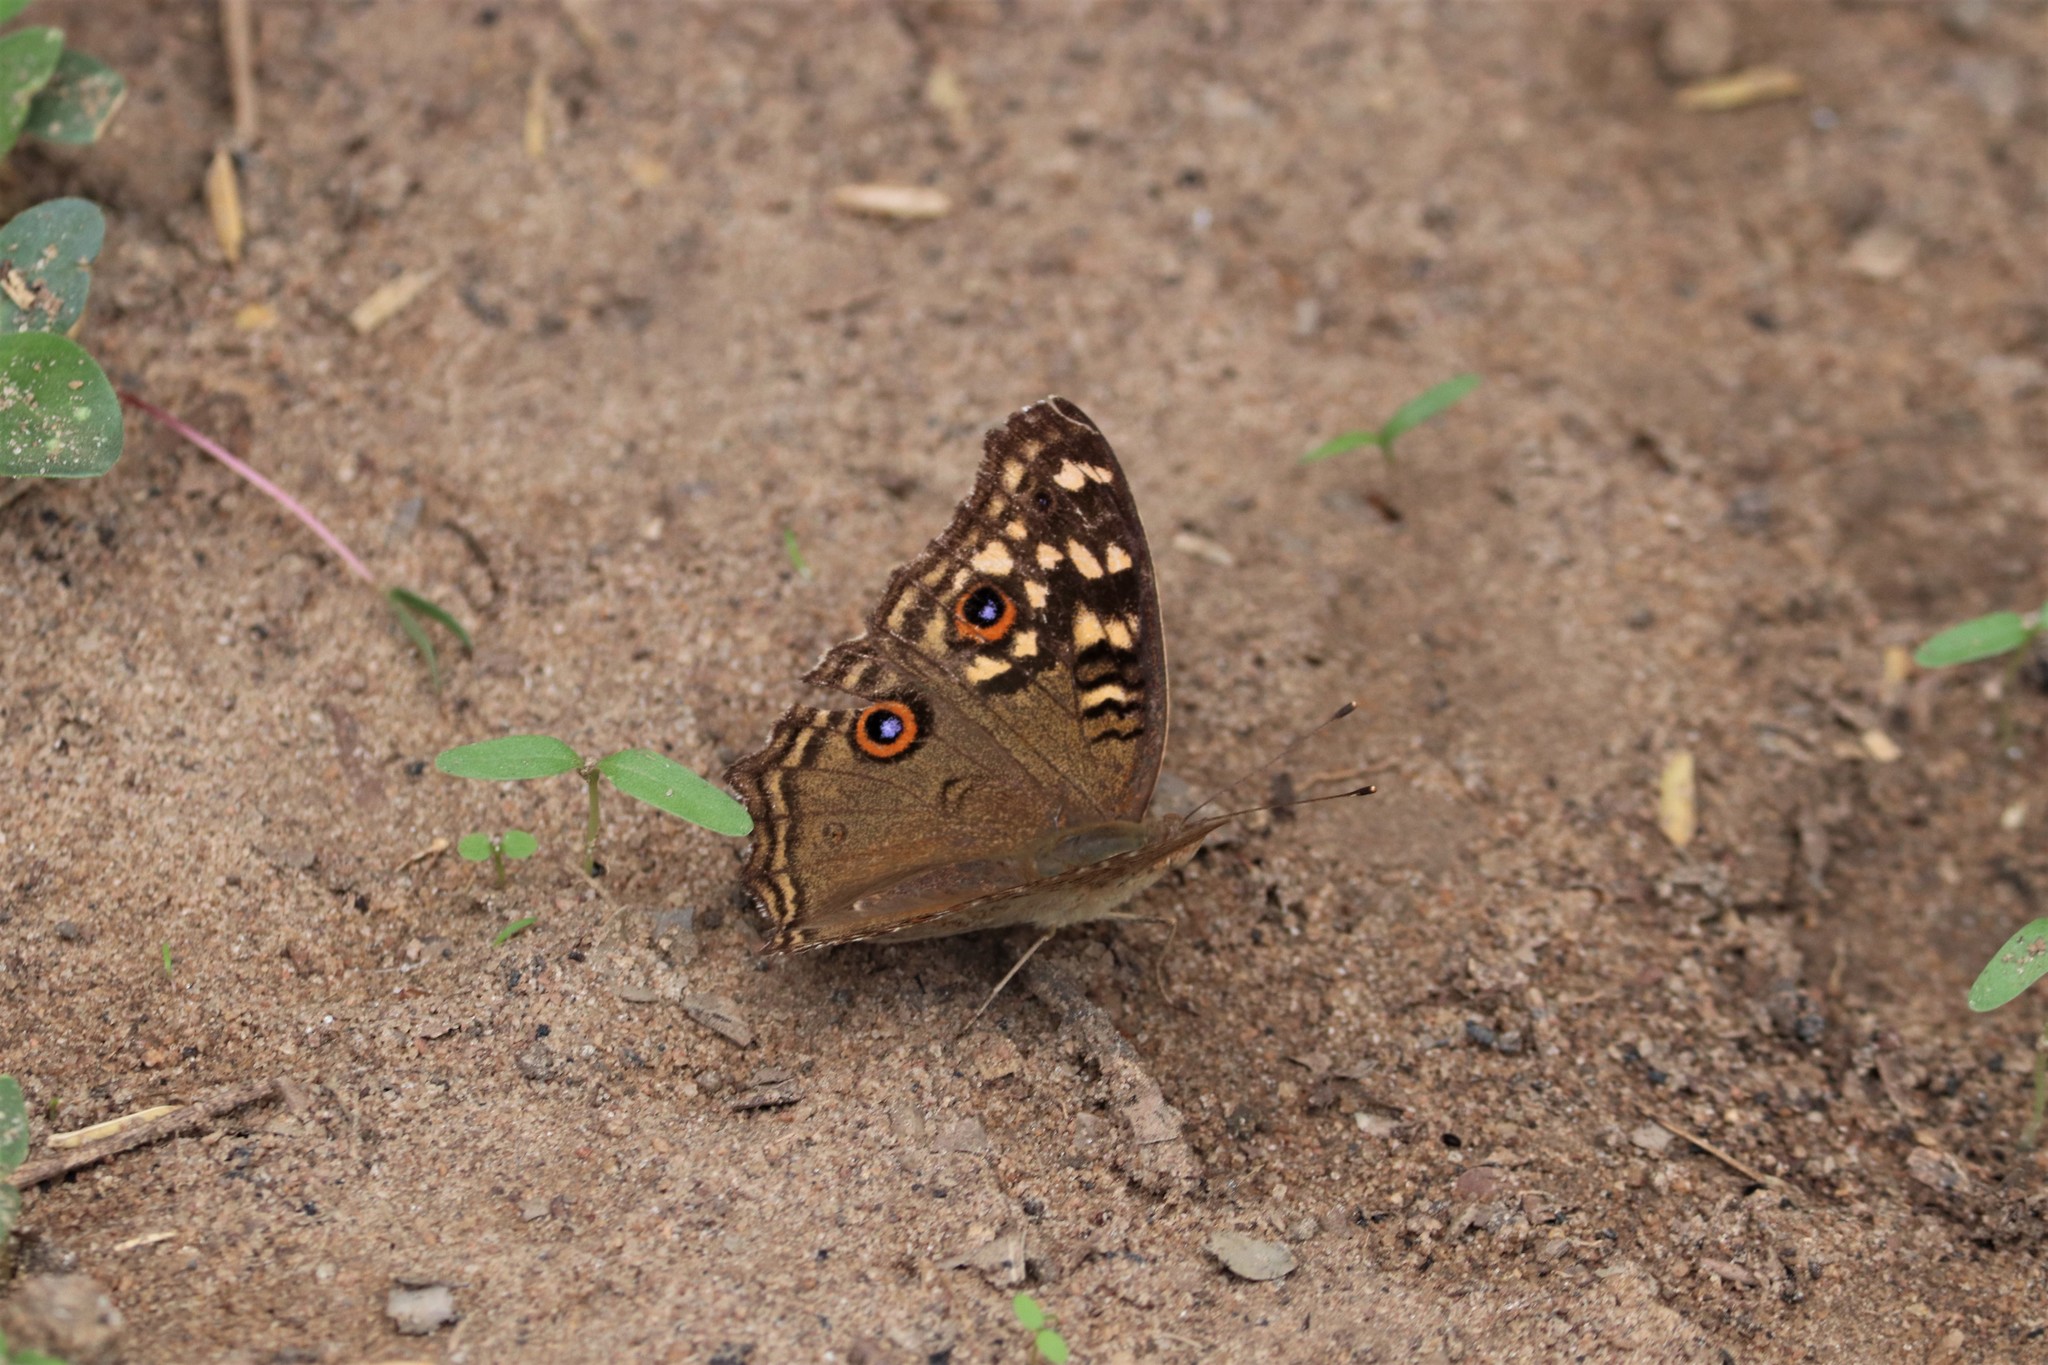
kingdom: Animalia
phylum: Arthropoda
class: Insecta
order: Lepidoptera
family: Nymphalidae
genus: Junonia
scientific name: Junonia lemonias
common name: Lemon pansy
